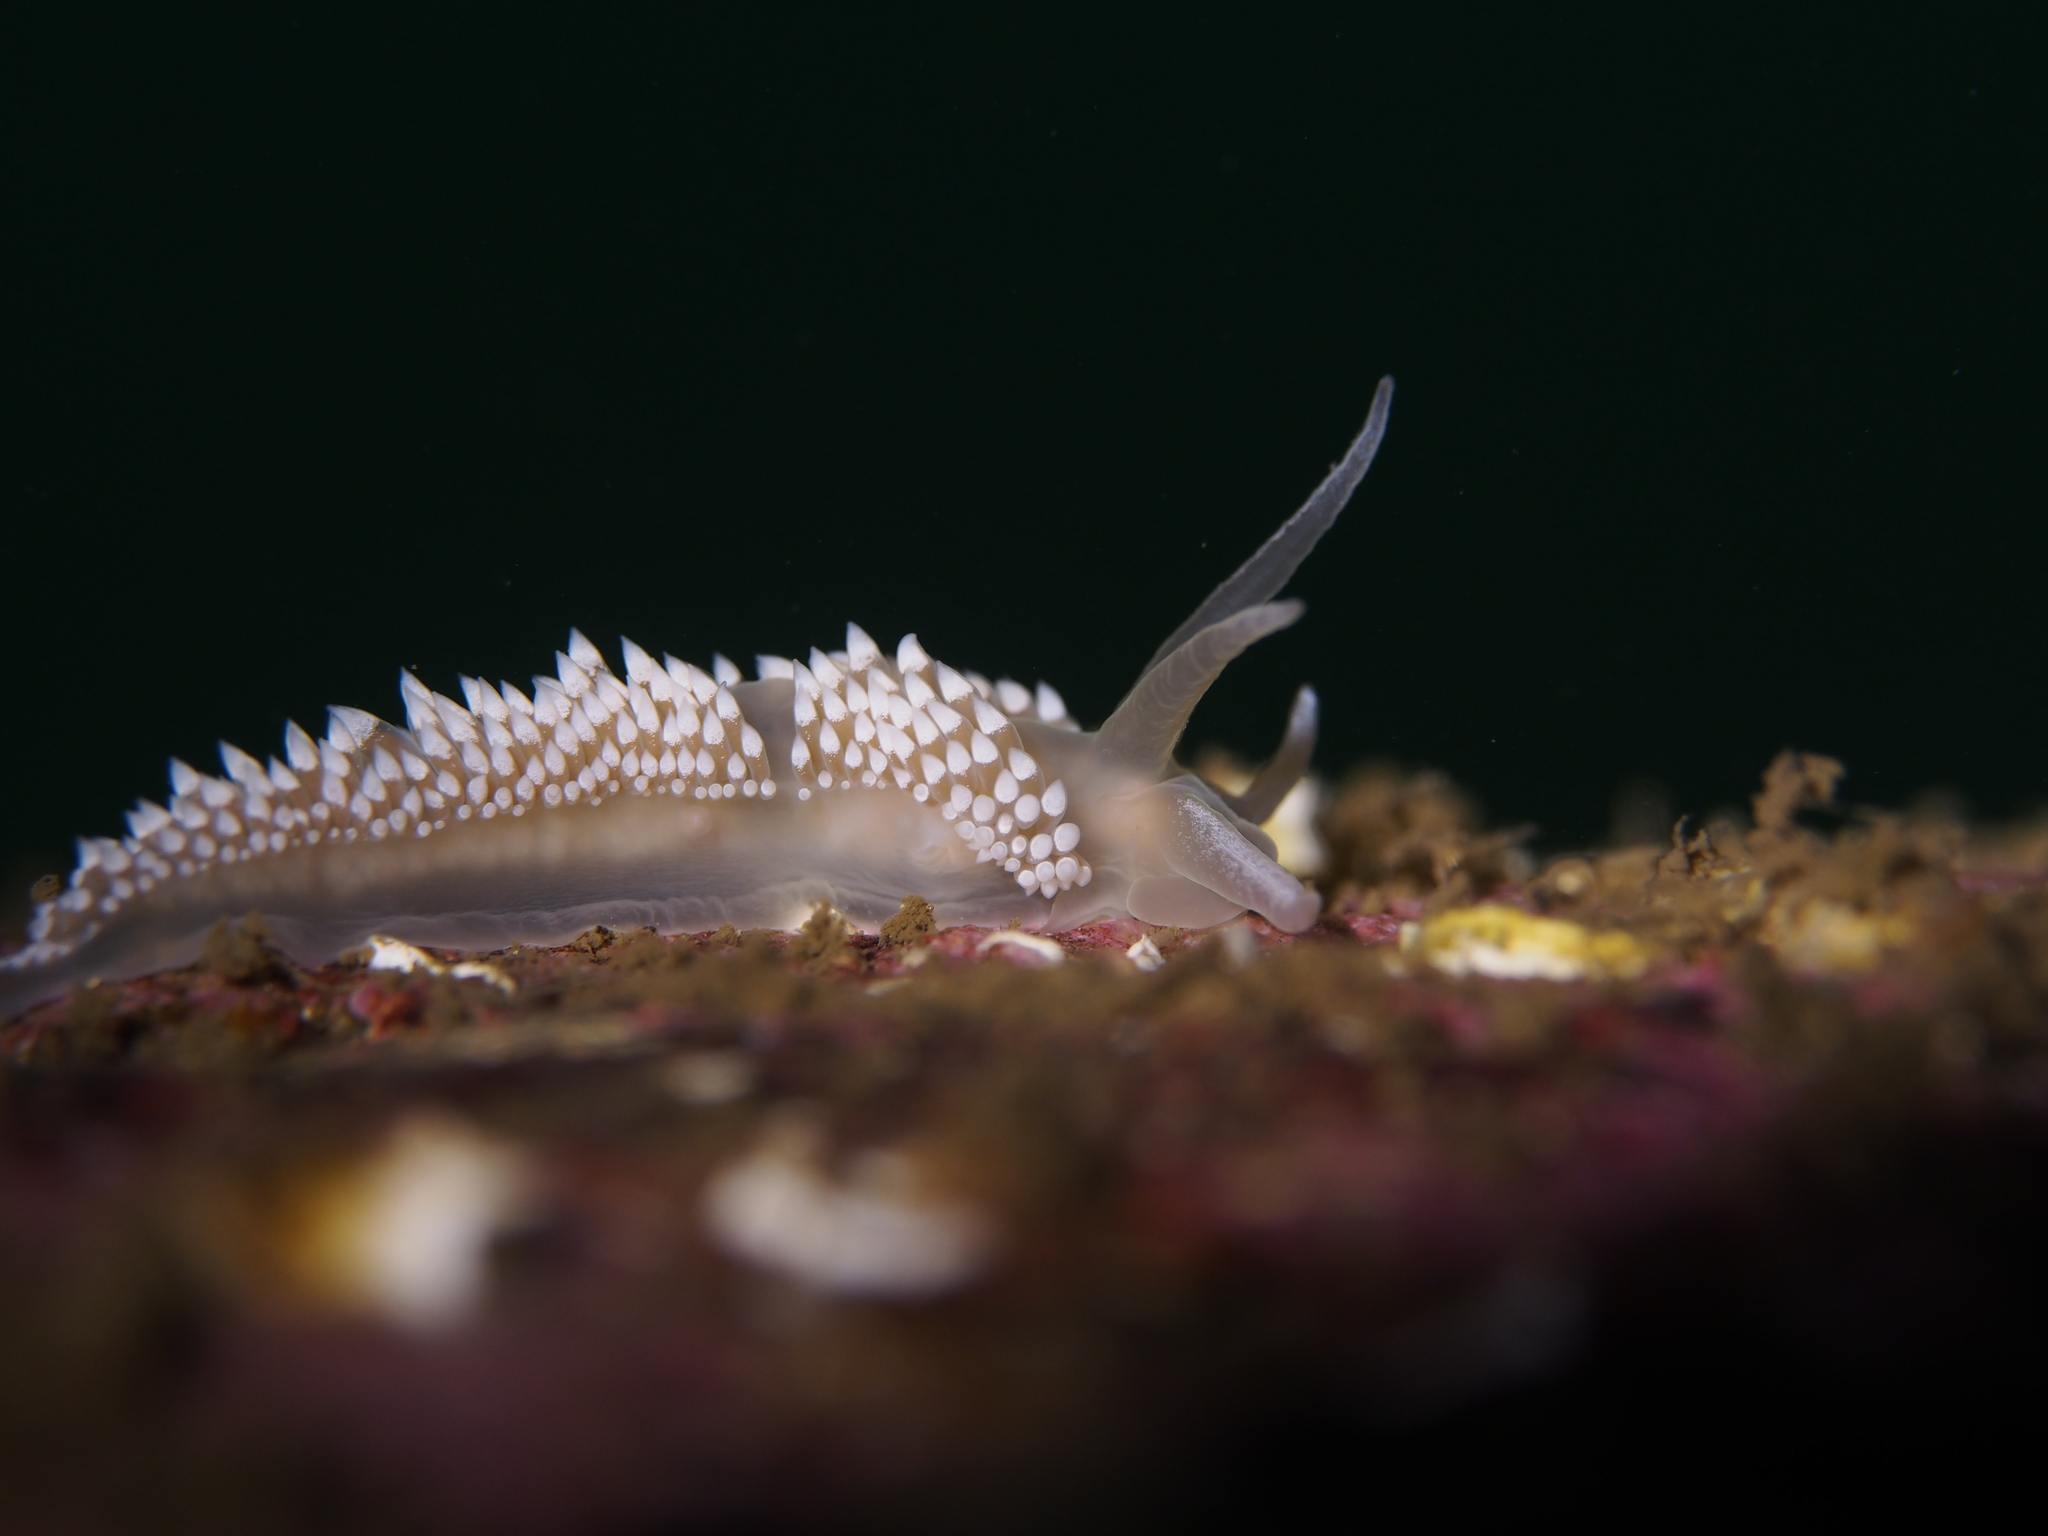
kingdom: Animalia
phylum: Mollusca
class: Gastropoda
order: Nudibranchia
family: Coryphellidae
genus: Coryphella
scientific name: Coryphella verrucosa
